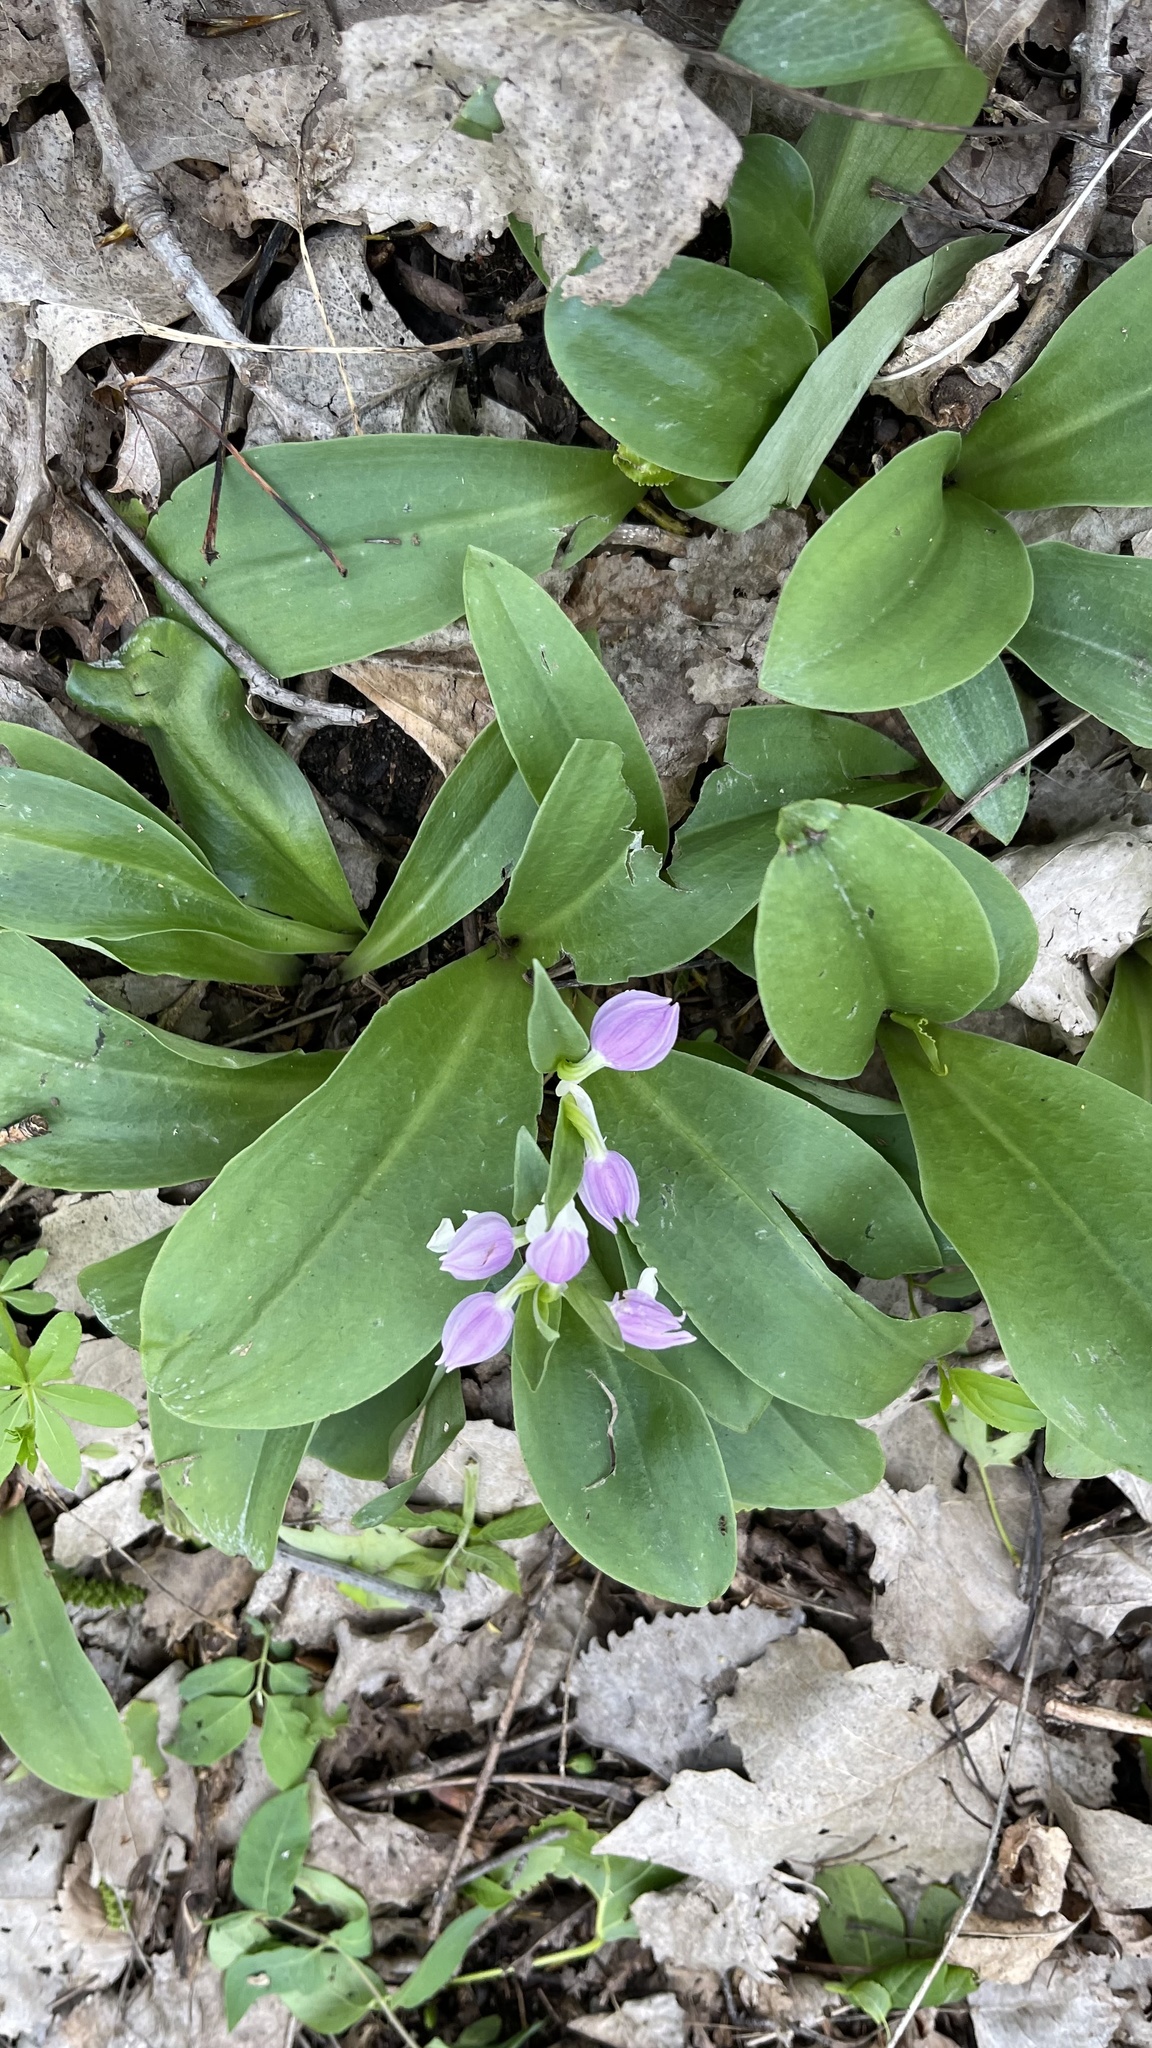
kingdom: Plantae
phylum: Tracheophyta
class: Liliopsida
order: Asparagales
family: Orchidaceae
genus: Galearis
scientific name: Galearis spectabilis
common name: Purple-hooded orchis
